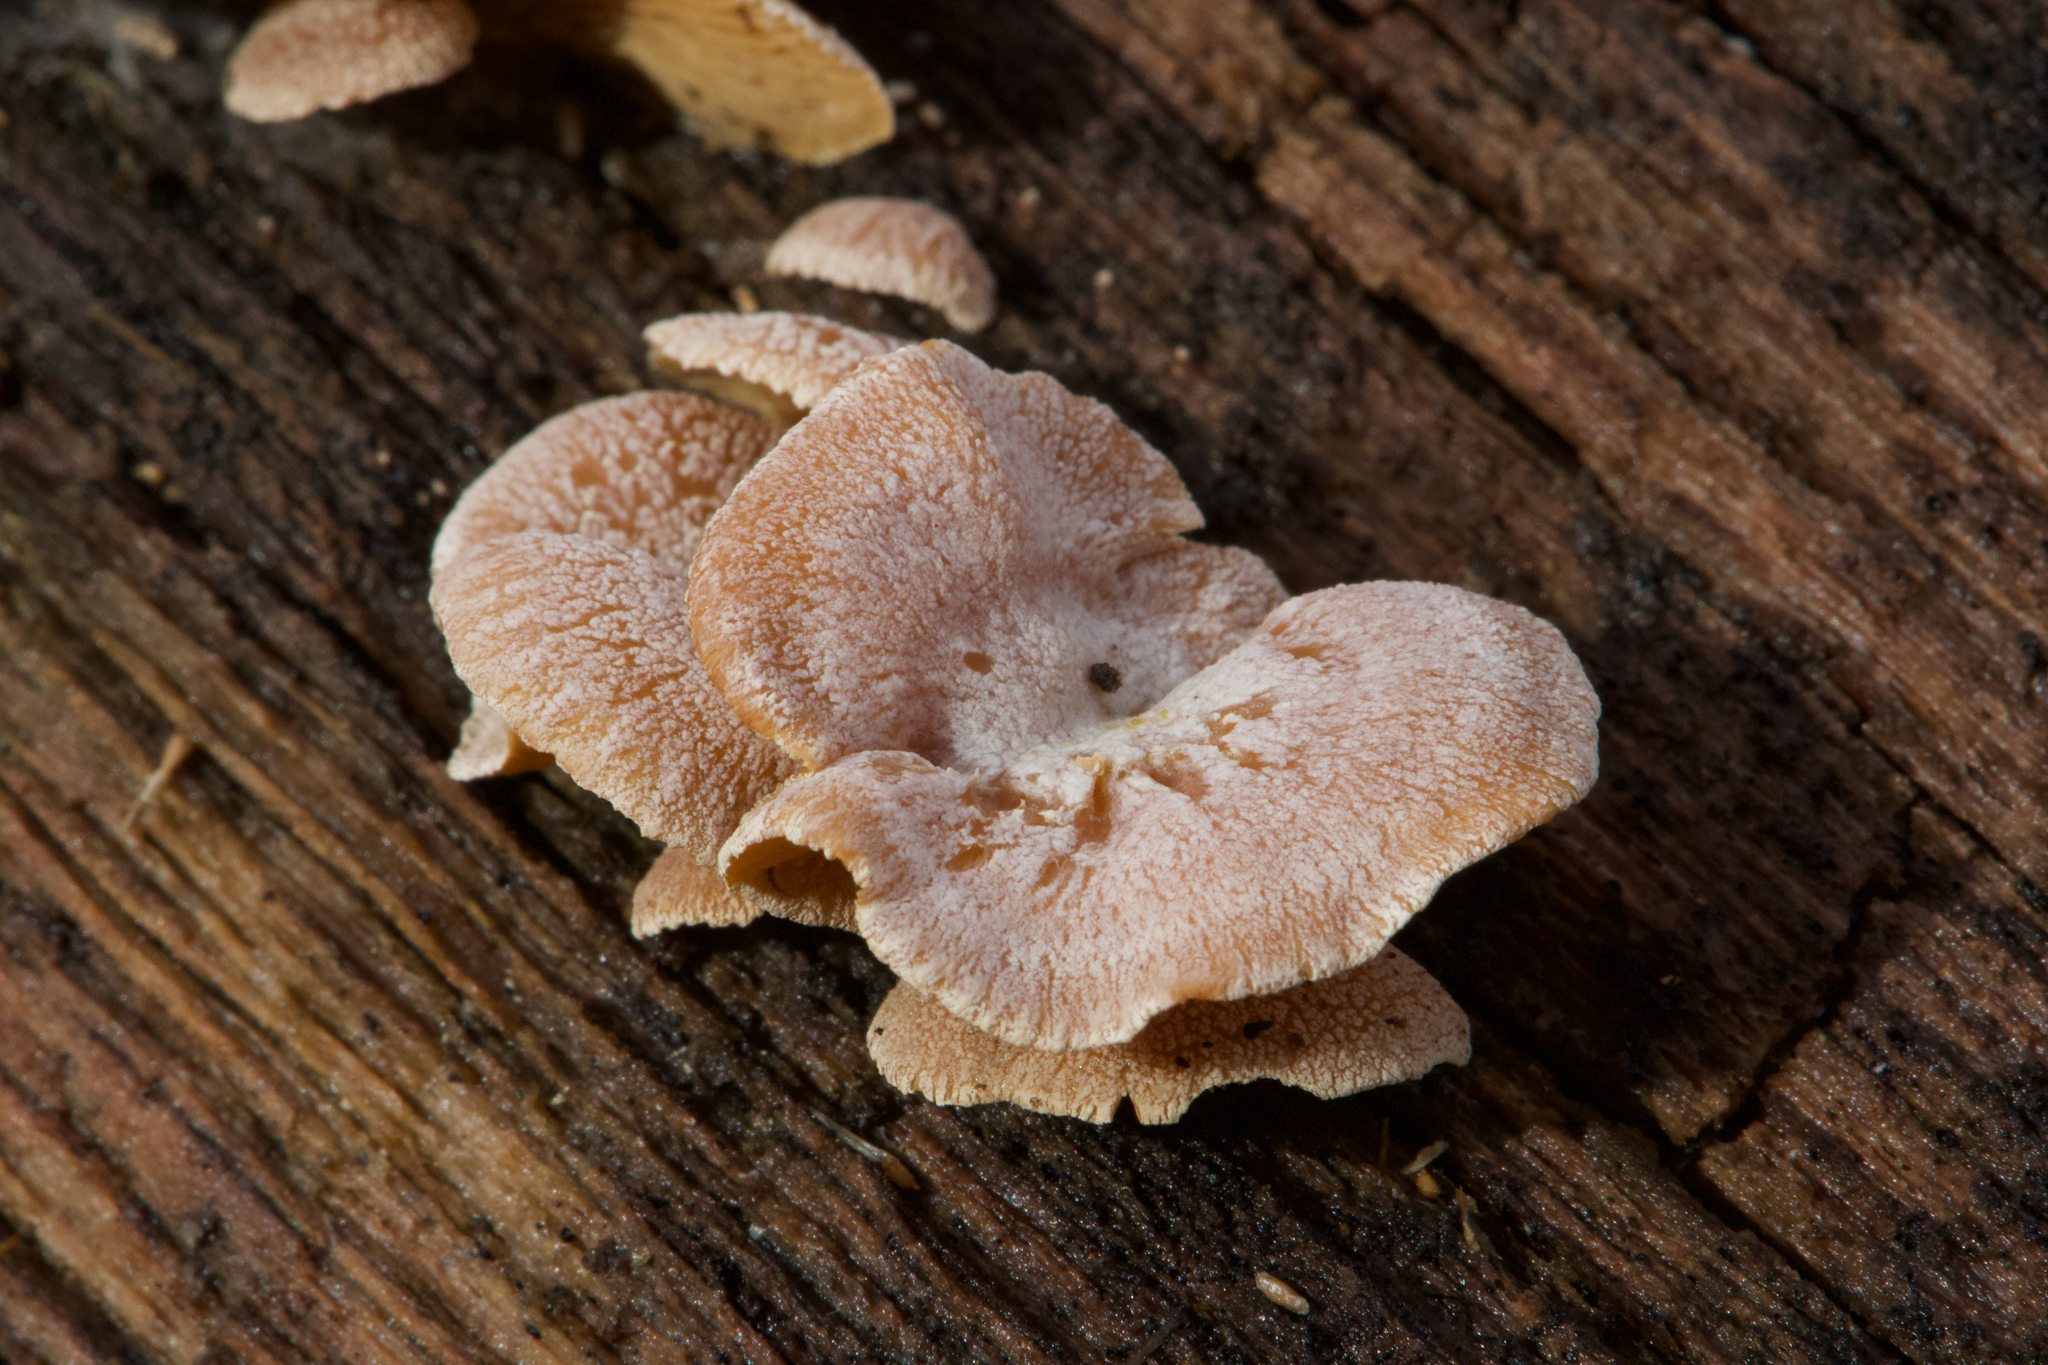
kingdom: Fungi
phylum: Basidiomycota
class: Agaricomycetes
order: Agaricales
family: Mycenaceae
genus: Panellus
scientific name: Panellus stipticus
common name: Bitter oysterling
